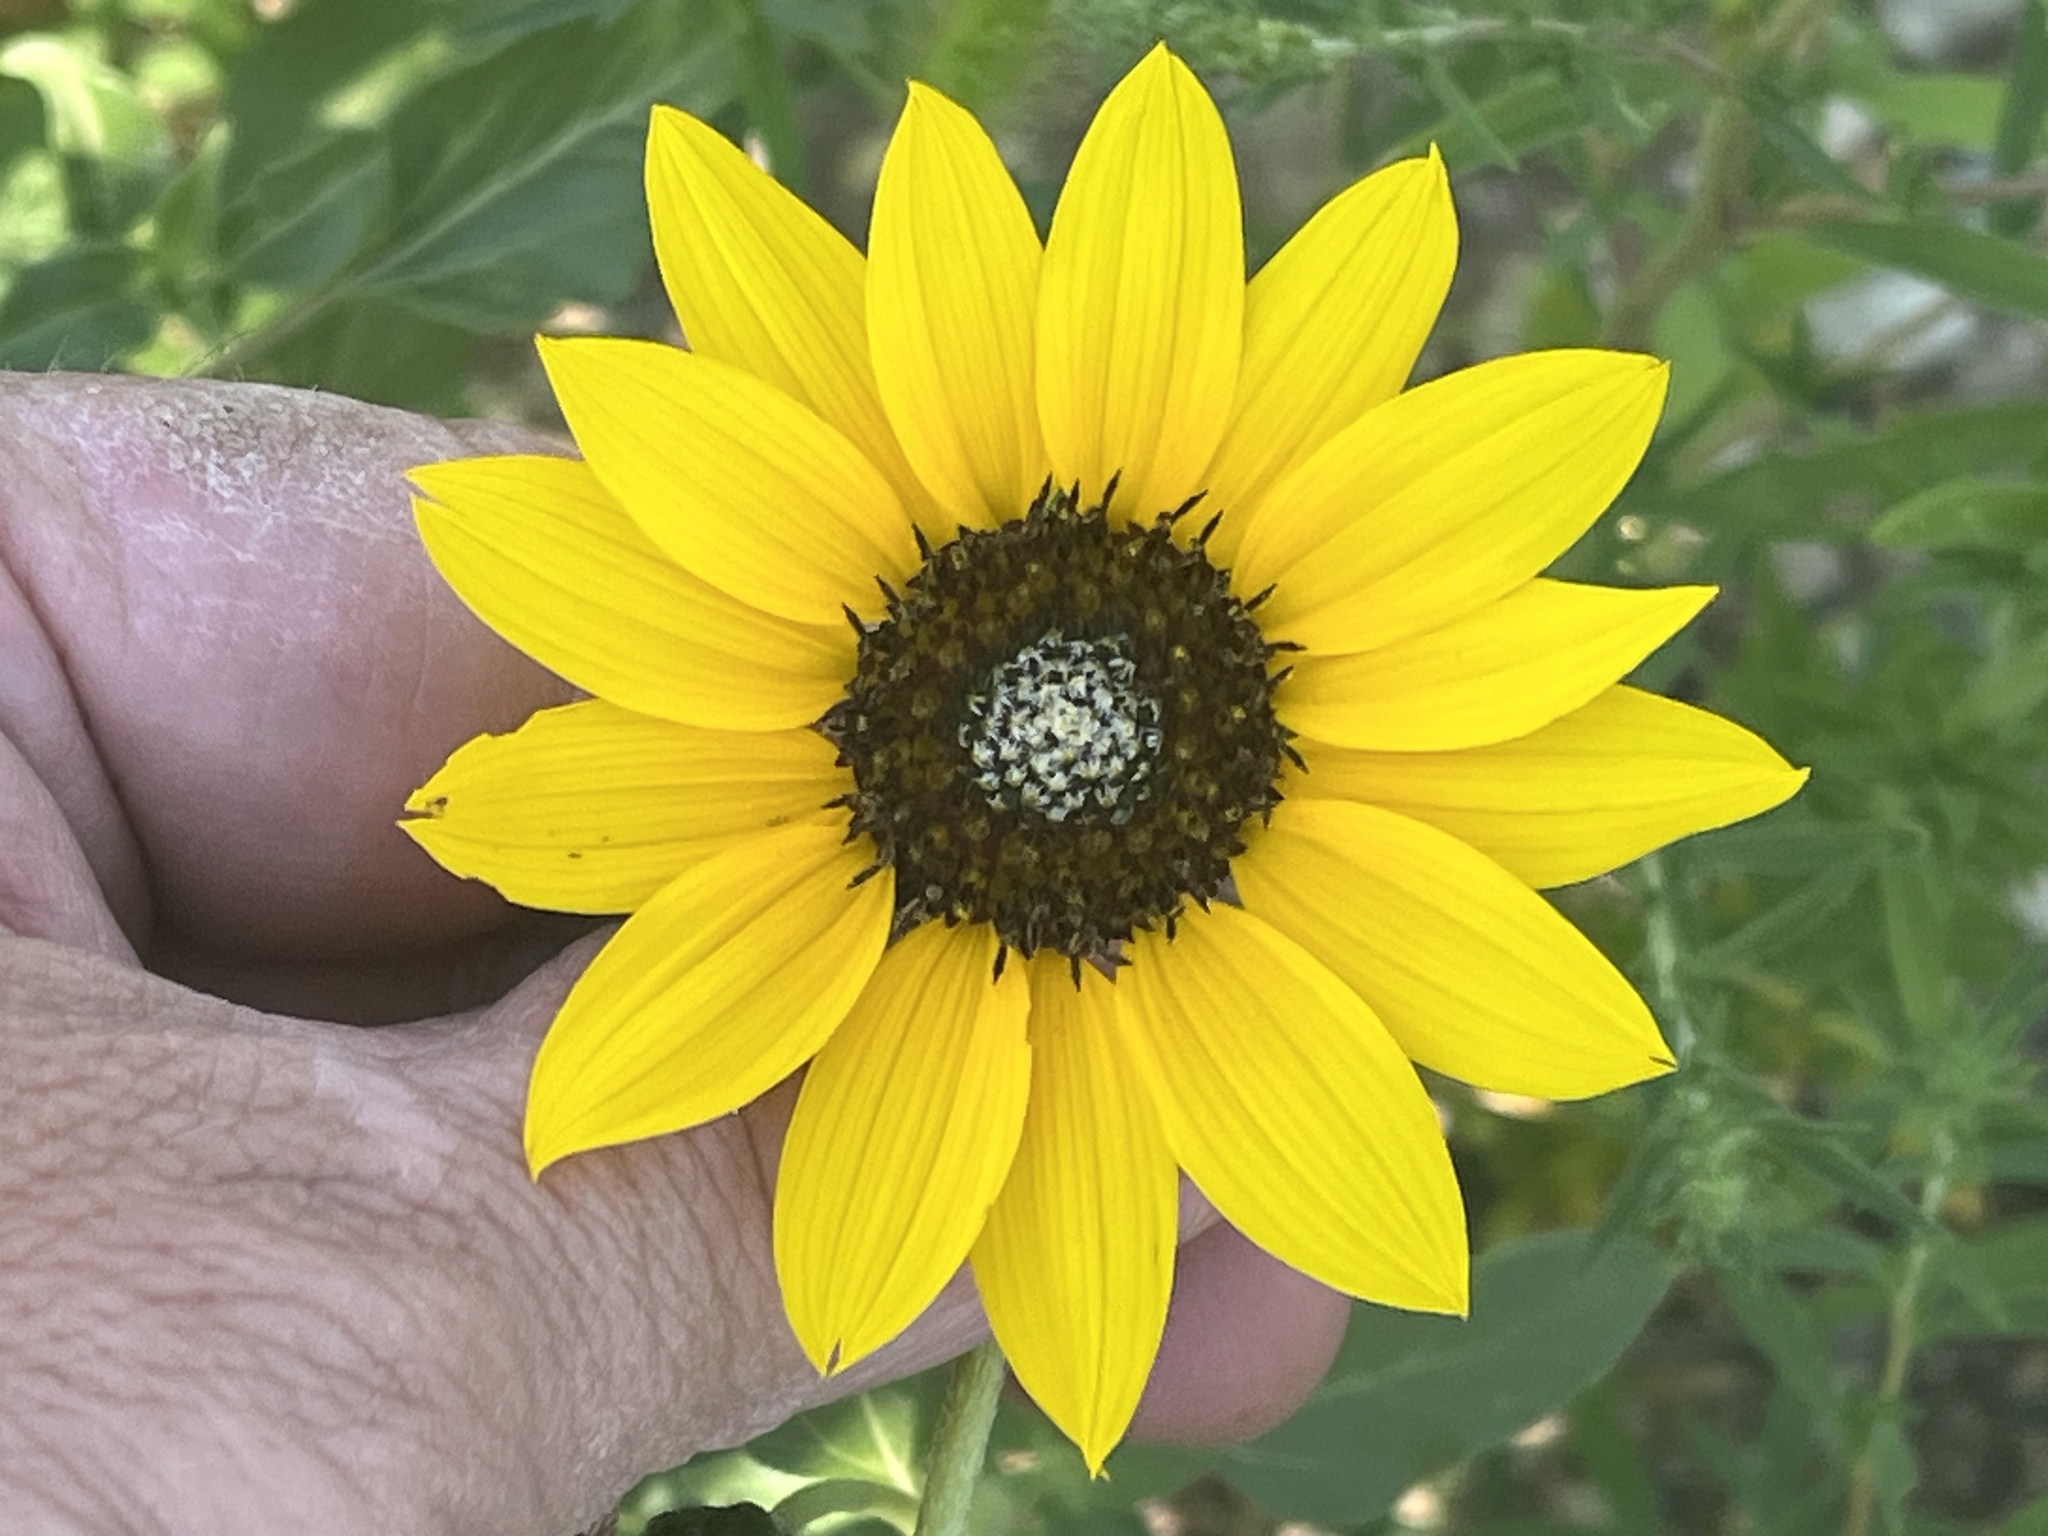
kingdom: Plantae
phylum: Tracheophyta
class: Magnoliopsida
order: Asterales
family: Asteraceae
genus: Helianthus
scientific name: Helianthus petiolaris
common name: Lesser sunflower
